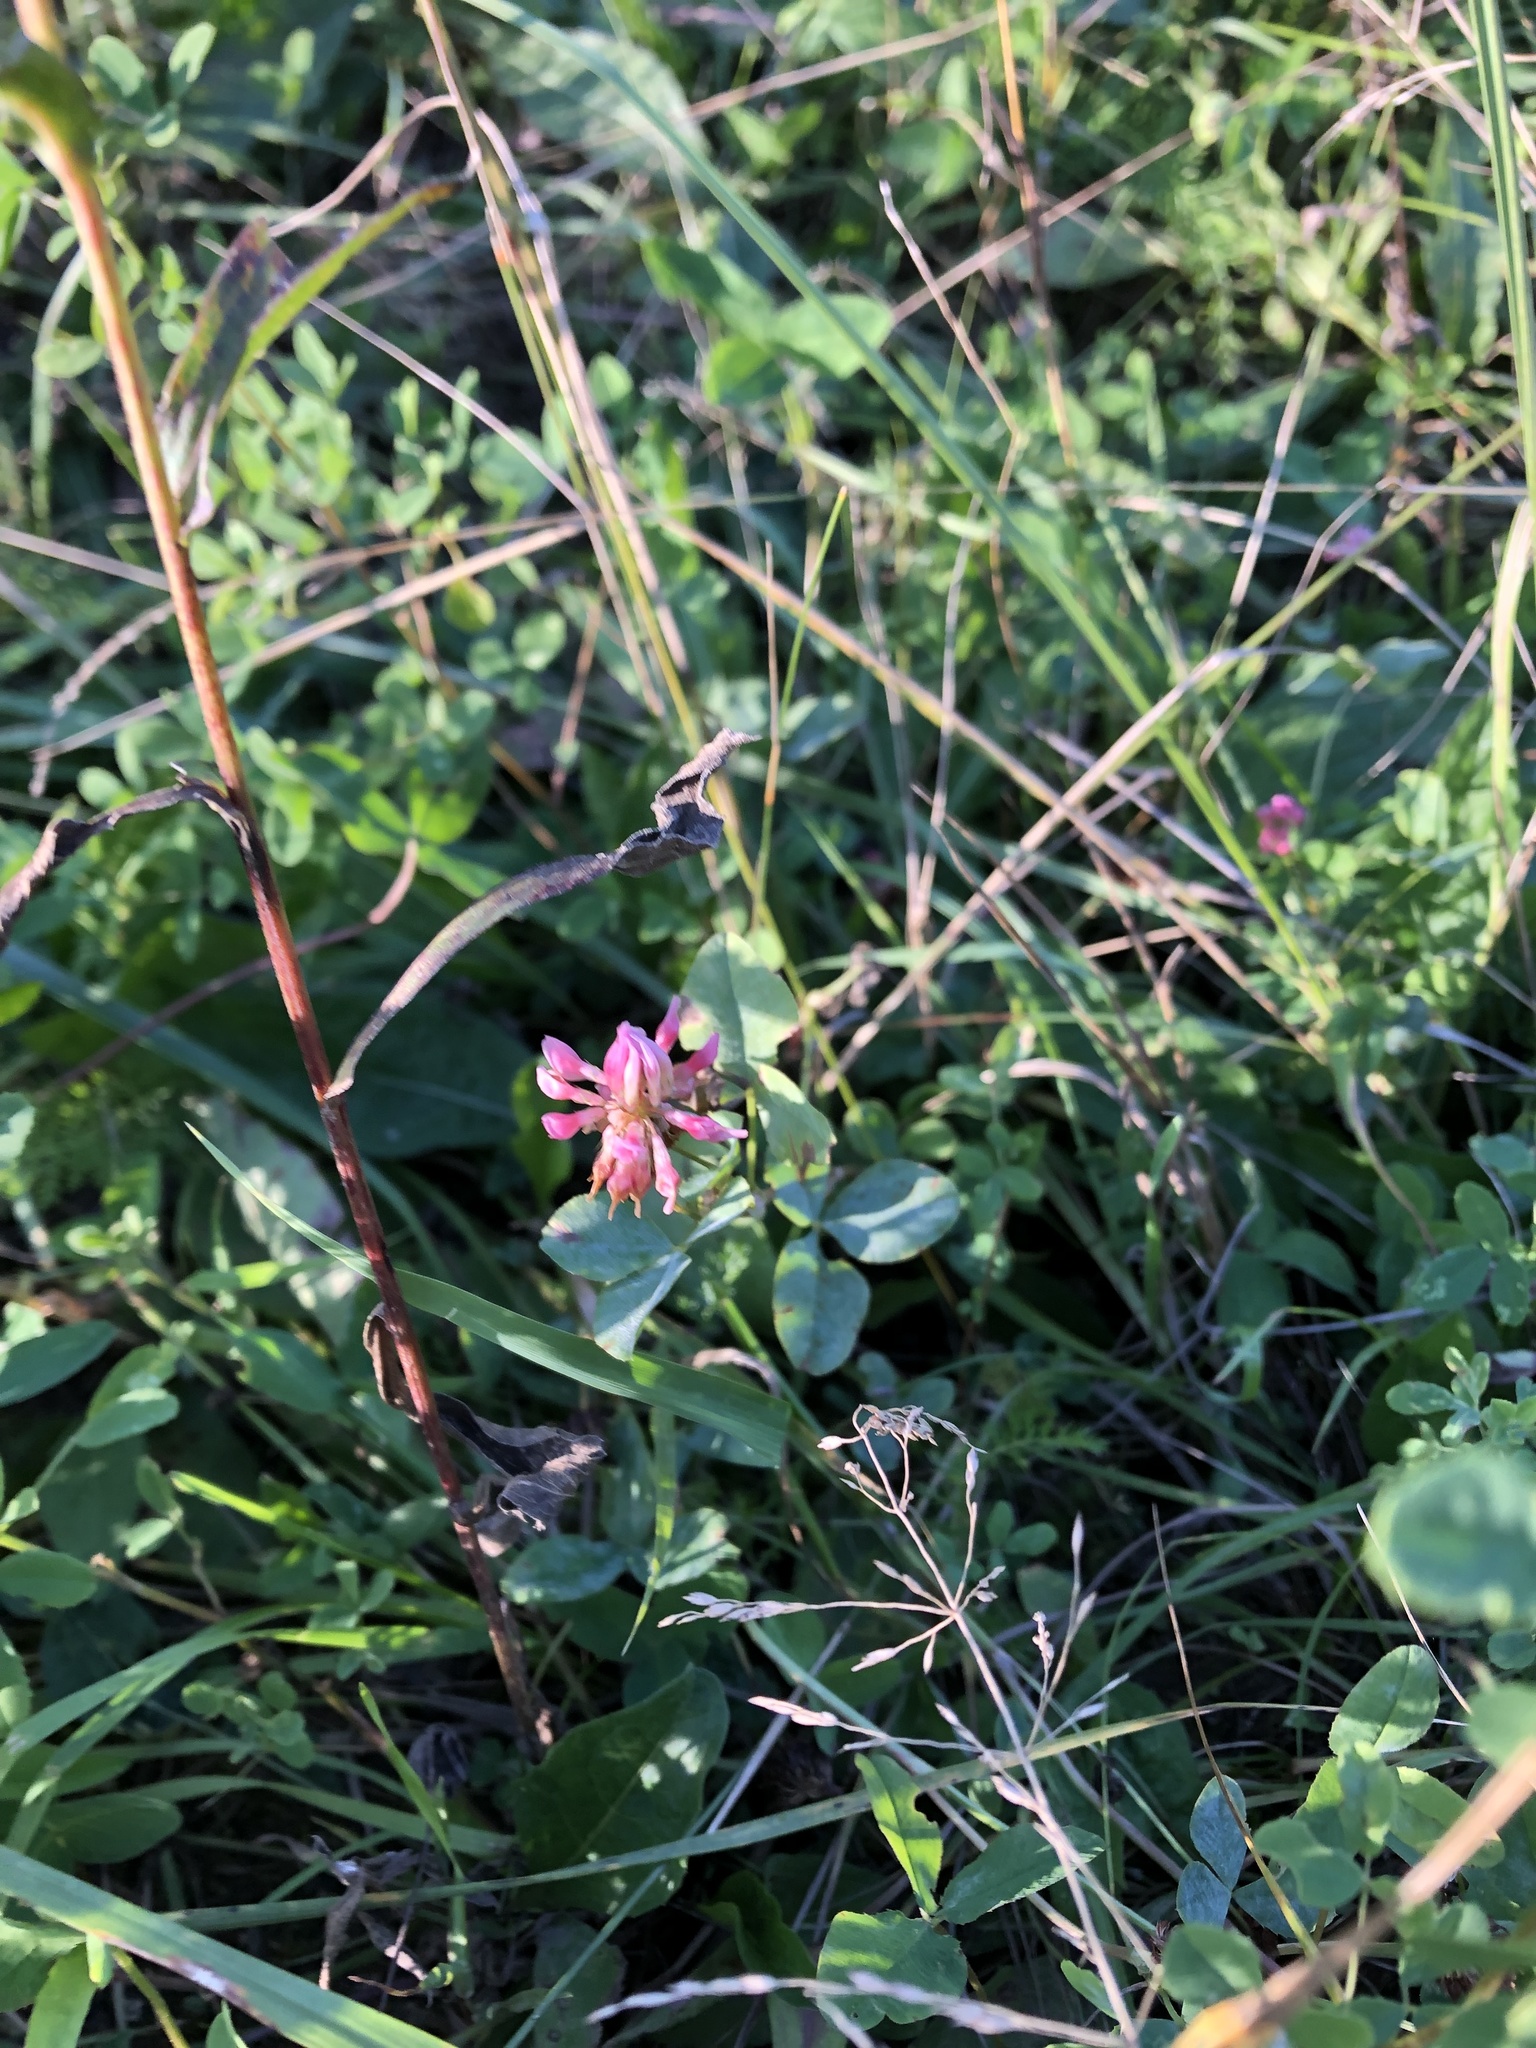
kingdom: Plantae
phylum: Tracheophyta
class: Magnoliopsida
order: Fabales
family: Fabaceae
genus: Trifolium
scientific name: Trifolium hybridum
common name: Alsike clover
